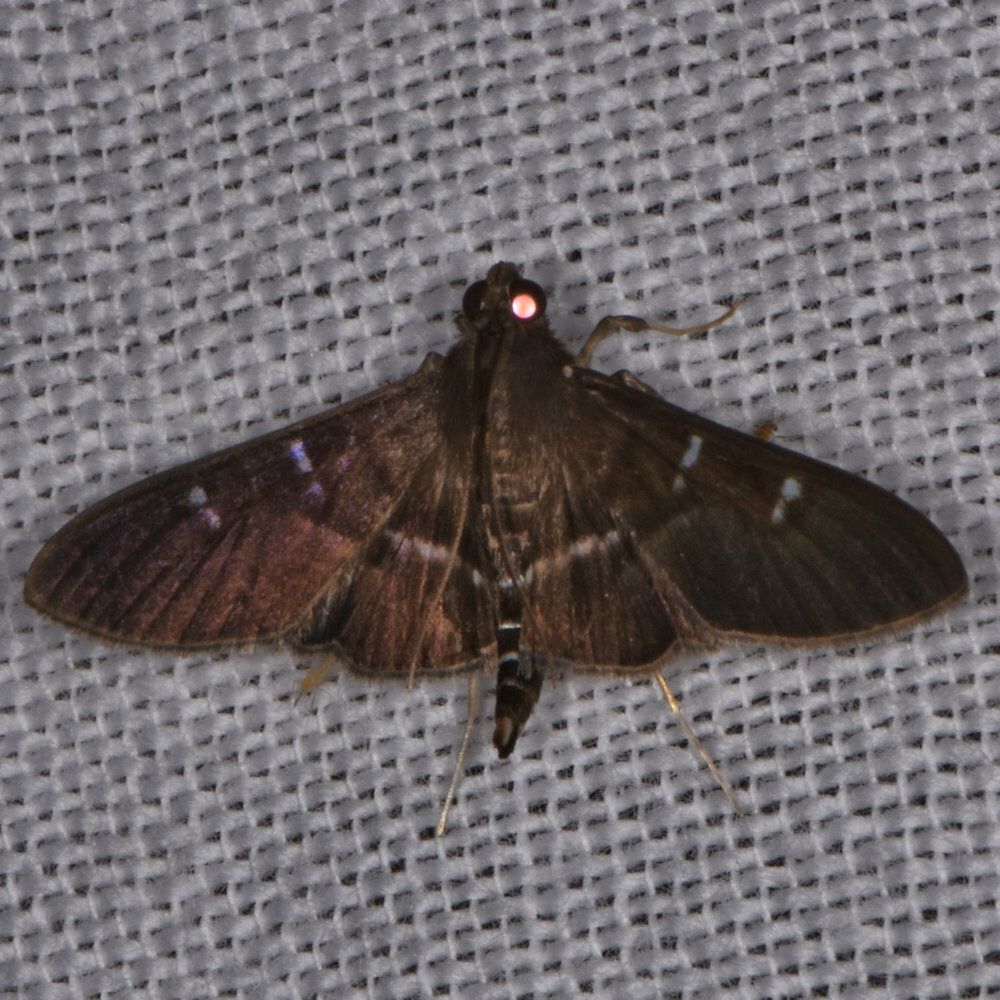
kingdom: Animalia
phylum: Arthropoda
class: Insecta
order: Lepidoptera
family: Crambidae
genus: Desmia
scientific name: Desmia ploralis
